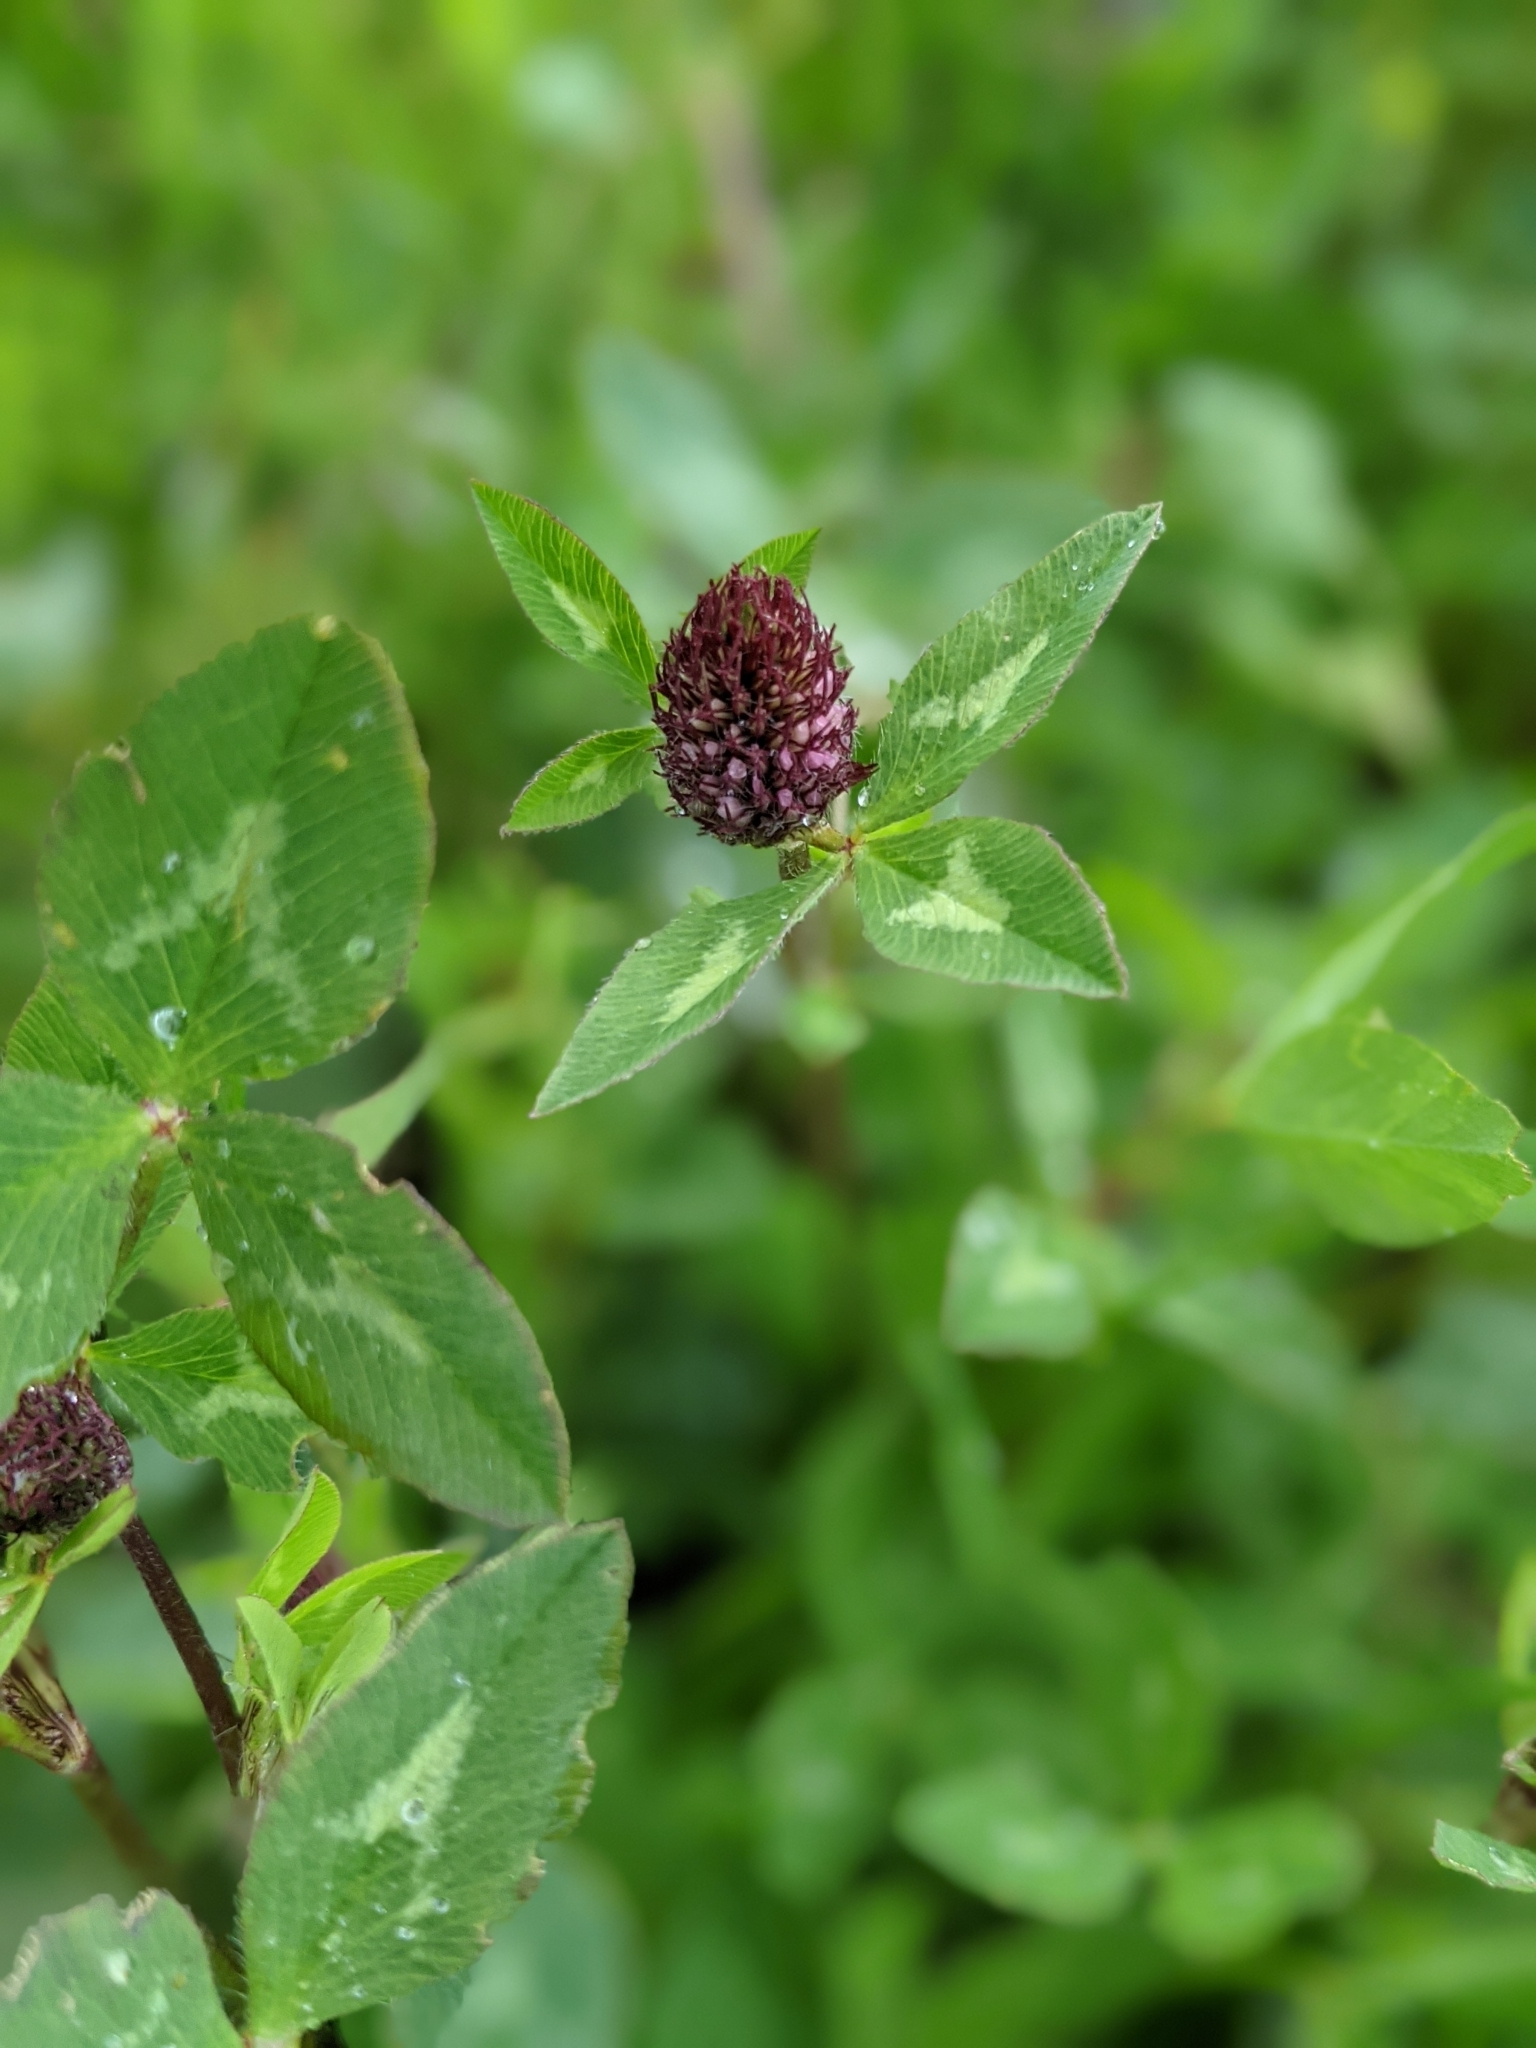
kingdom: Plantae
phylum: Tracheophyta
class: Magnoliopsida
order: Fabales
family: Fabaceae
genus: Trifolium
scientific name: Trifolium pratense
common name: Red clover
